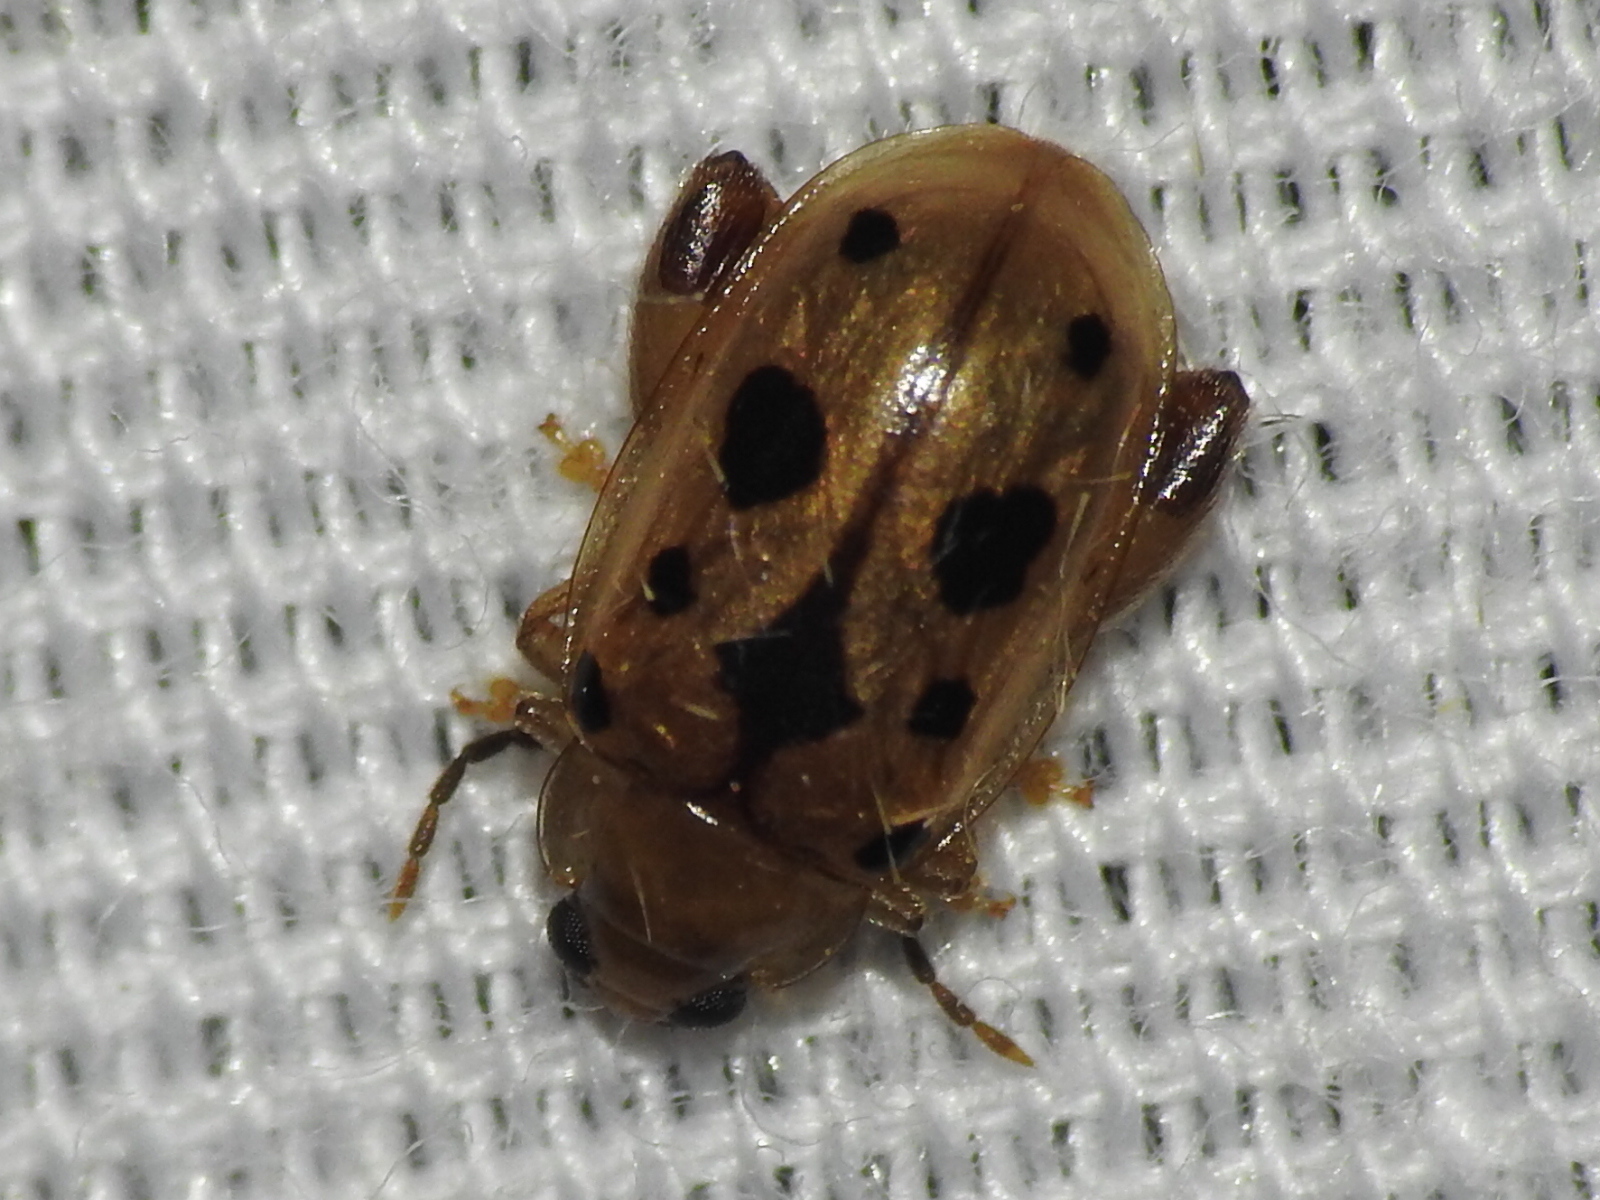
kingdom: Animalia
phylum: Arthropoda
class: Insecta
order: Coleoptera
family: Chrysomelidae
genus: Capraita
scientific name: Capraita nigrosignata
